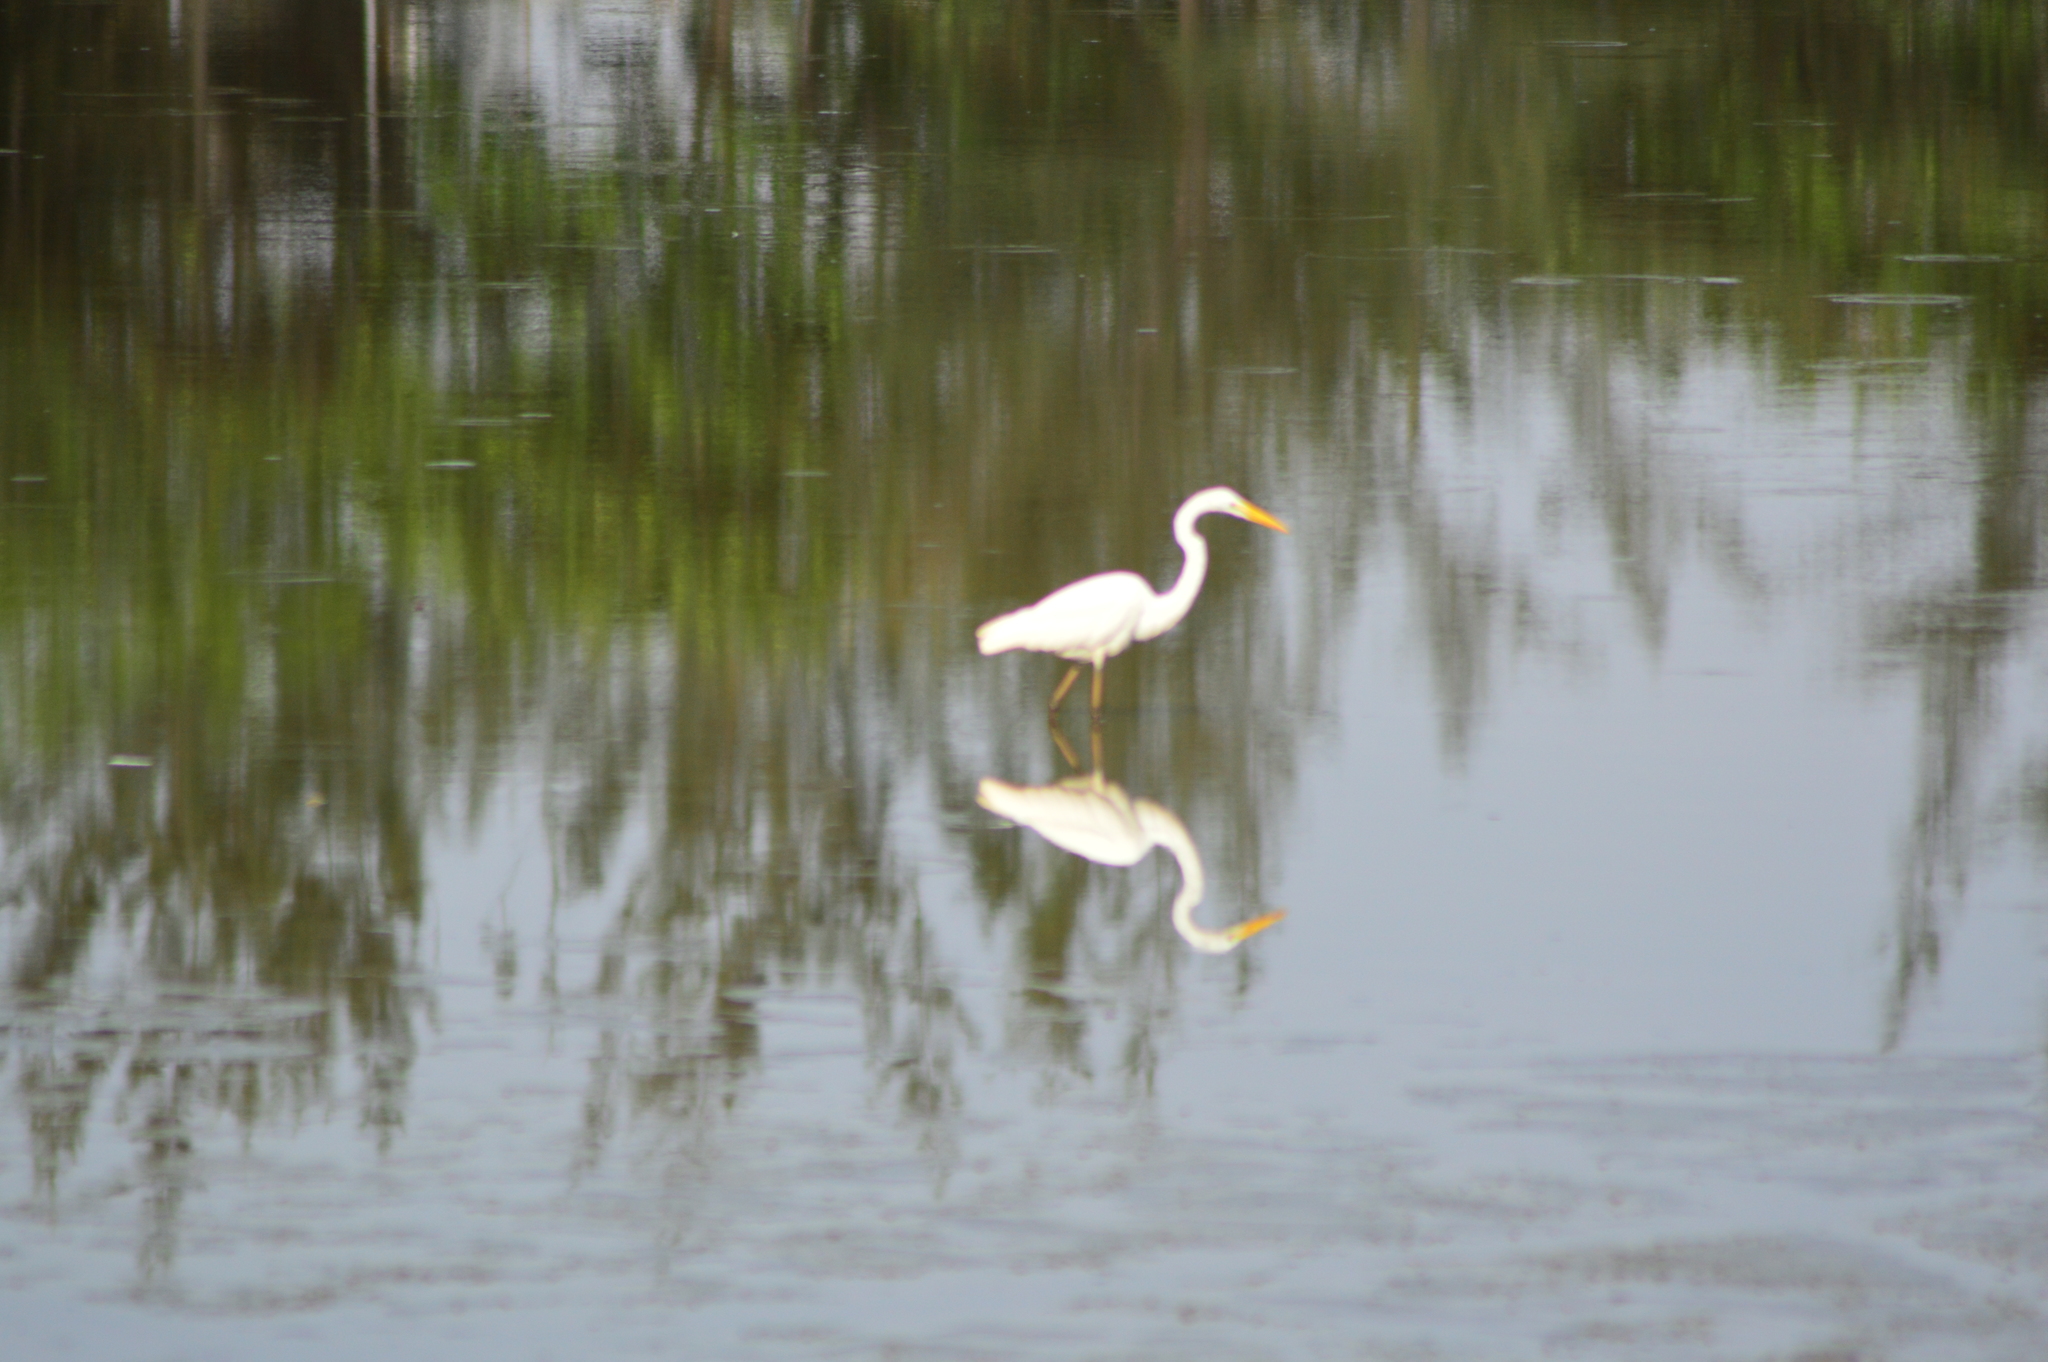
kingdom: Animalia
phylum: Chordata
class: Aves
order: Pelecaniformes
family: Ardeidae
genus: Ardea
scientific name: Ardea alba
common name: Great egret
